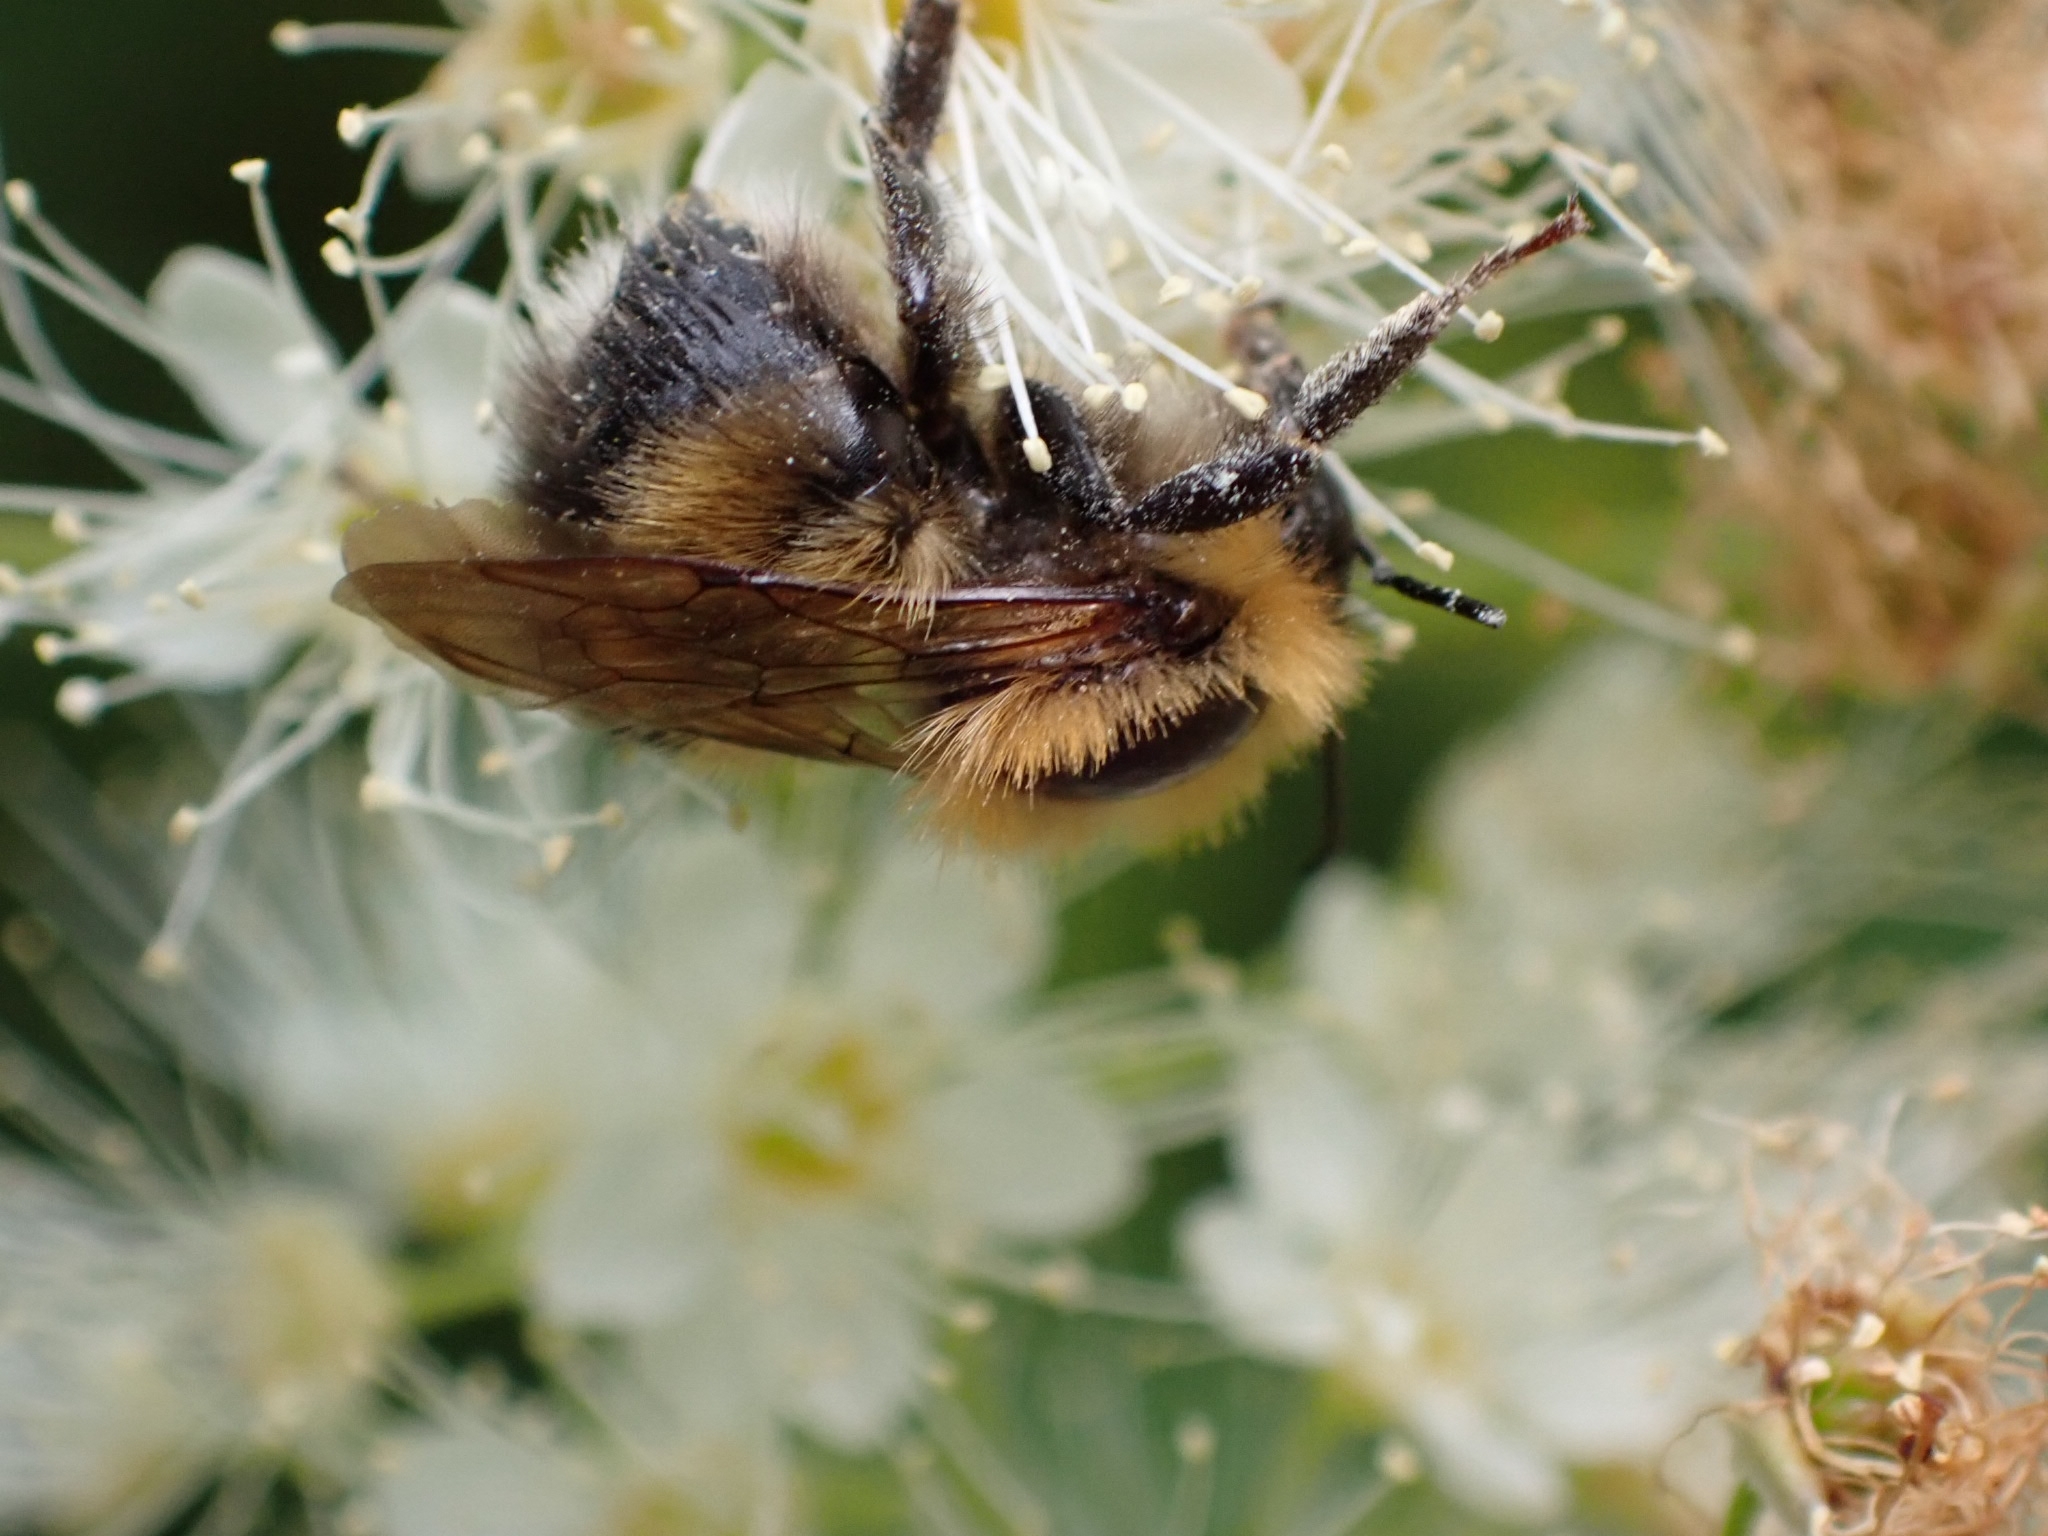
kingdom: Animalia
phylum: Arthropoda
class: Insecta
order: Hymenoptera
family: Apidae
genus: Bombus
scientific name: Bombus hypnorum
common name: New garden bumblebee
